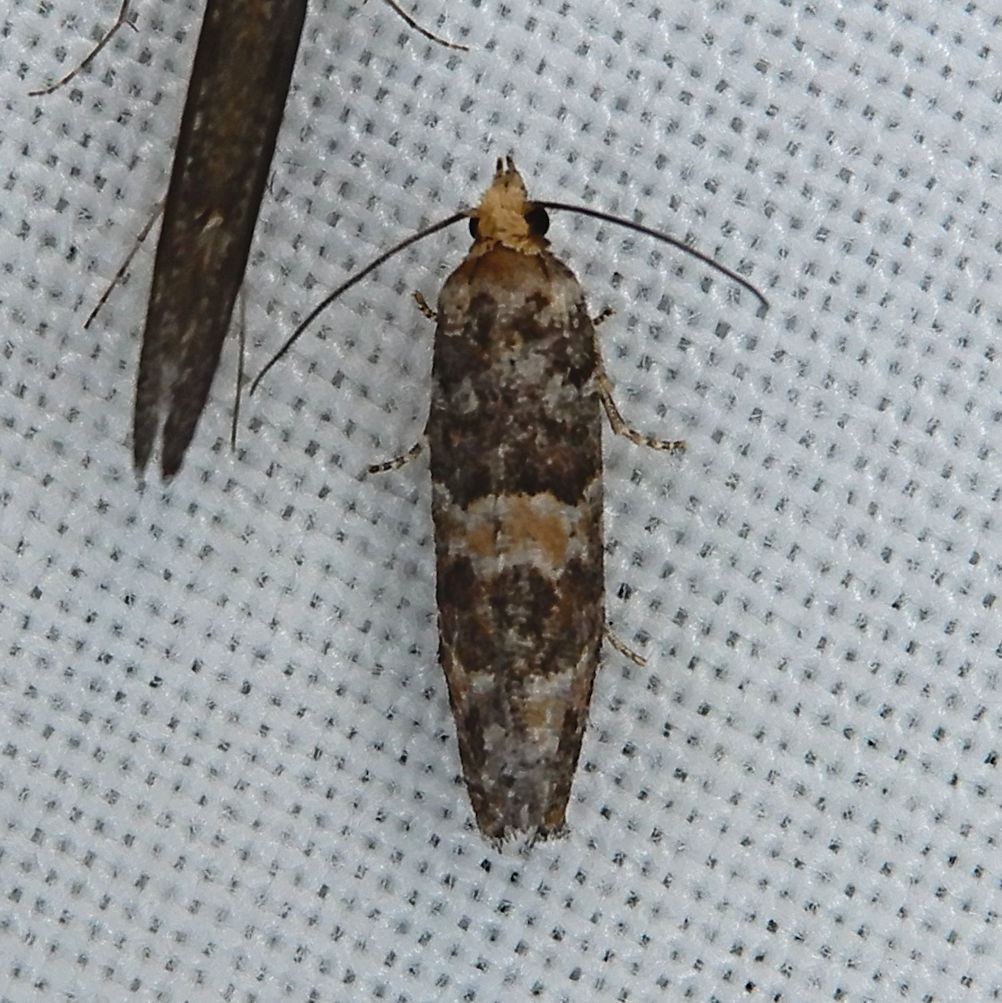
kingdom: Animalia
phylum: Arthropoda
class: Insecta
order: Lepidoptera
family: Tortricidae
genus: Eucopina
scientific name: Eucopina tocullionana
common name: White pinecone borer moth
